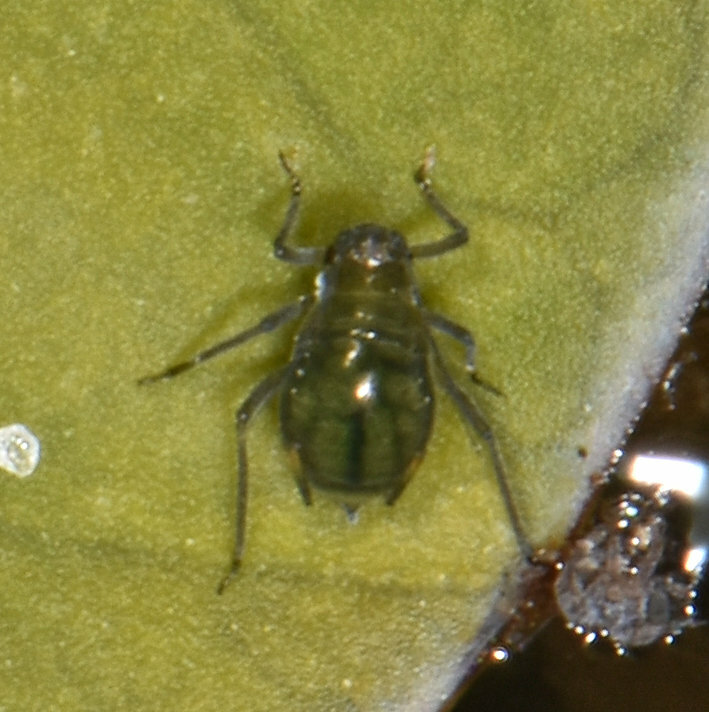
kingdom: Animalia
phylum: Arthropoda
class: Insecta
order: Hemiptera
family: Aphididae
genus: Rhopalosiphum
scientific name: Rhopalosiphum nymphaeae
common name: Water lily aphid
